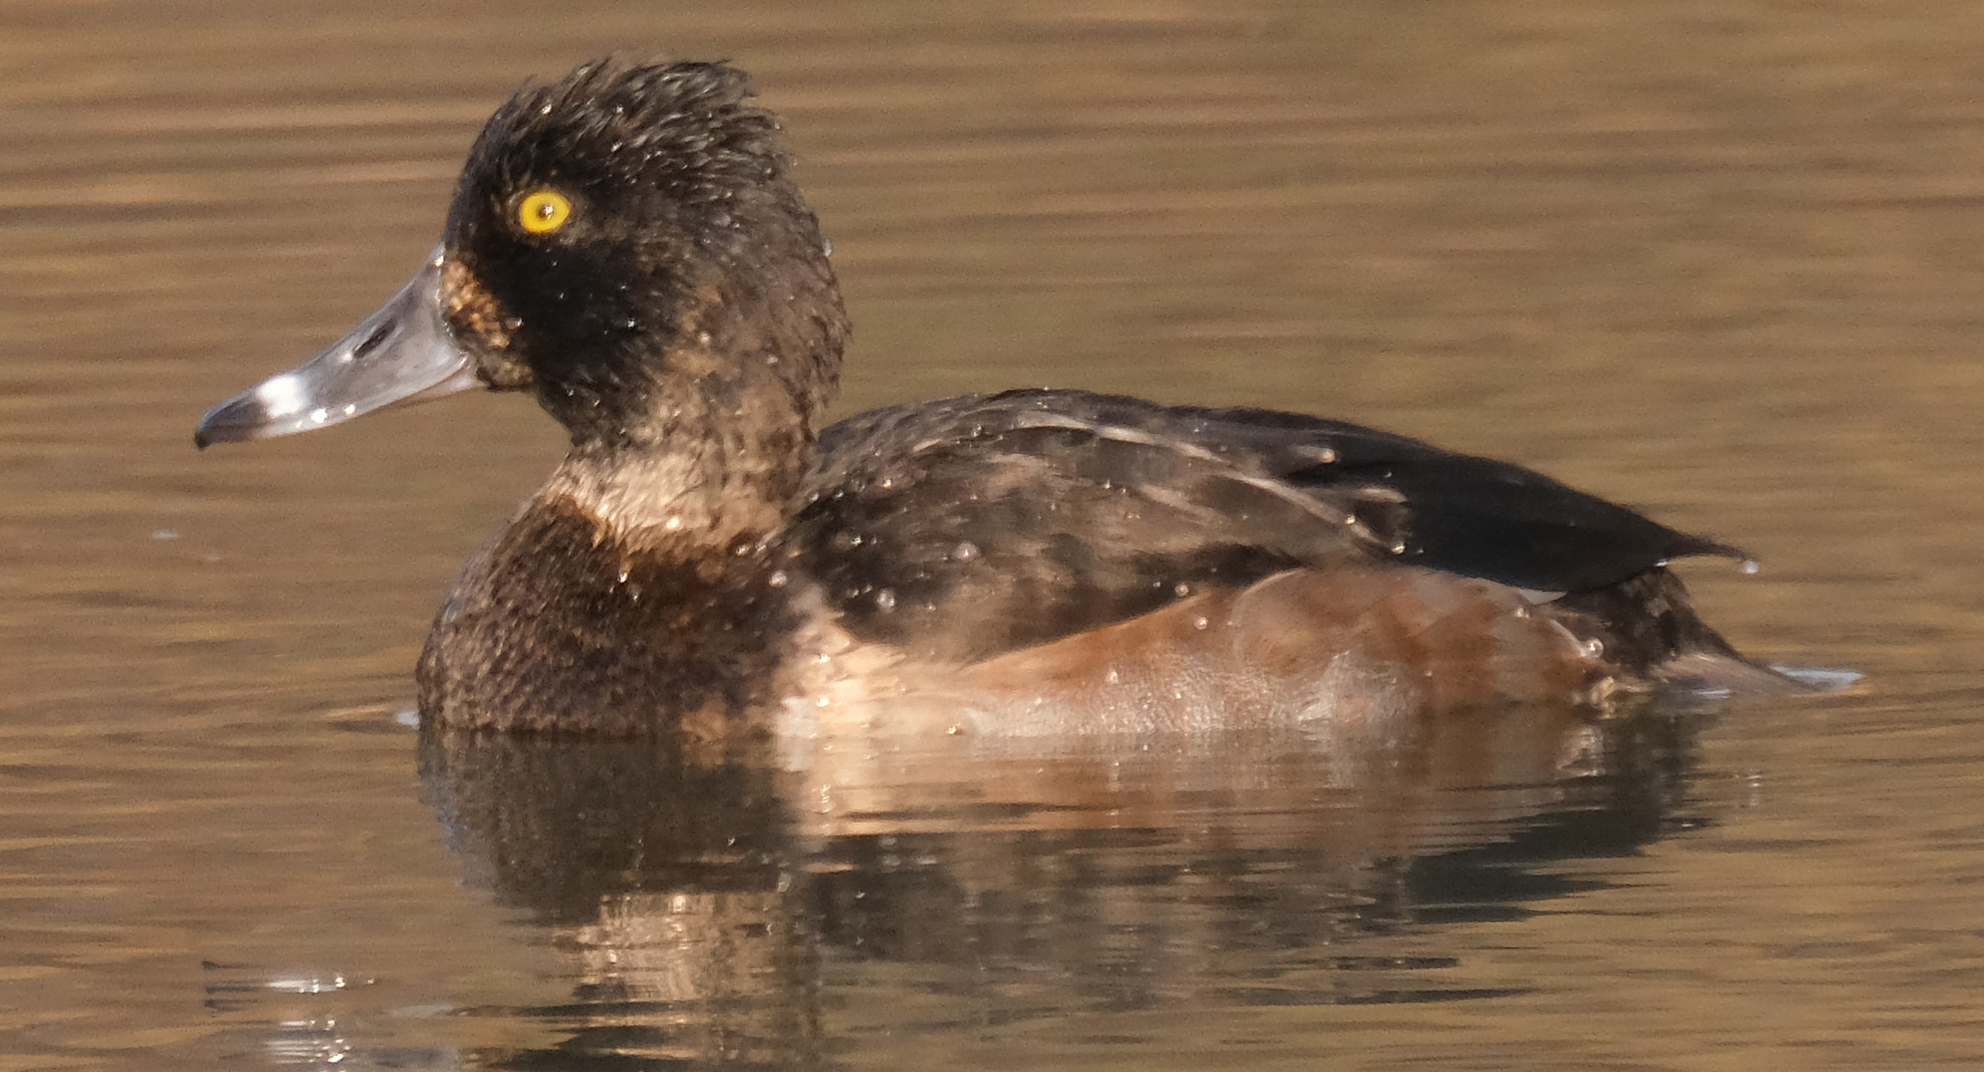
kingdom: Animalia
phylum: Chordata
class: Aves
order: Anseriformes
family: Anatidae
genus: Aythya
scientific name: Aythya collaris
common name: Ring-necked duck
